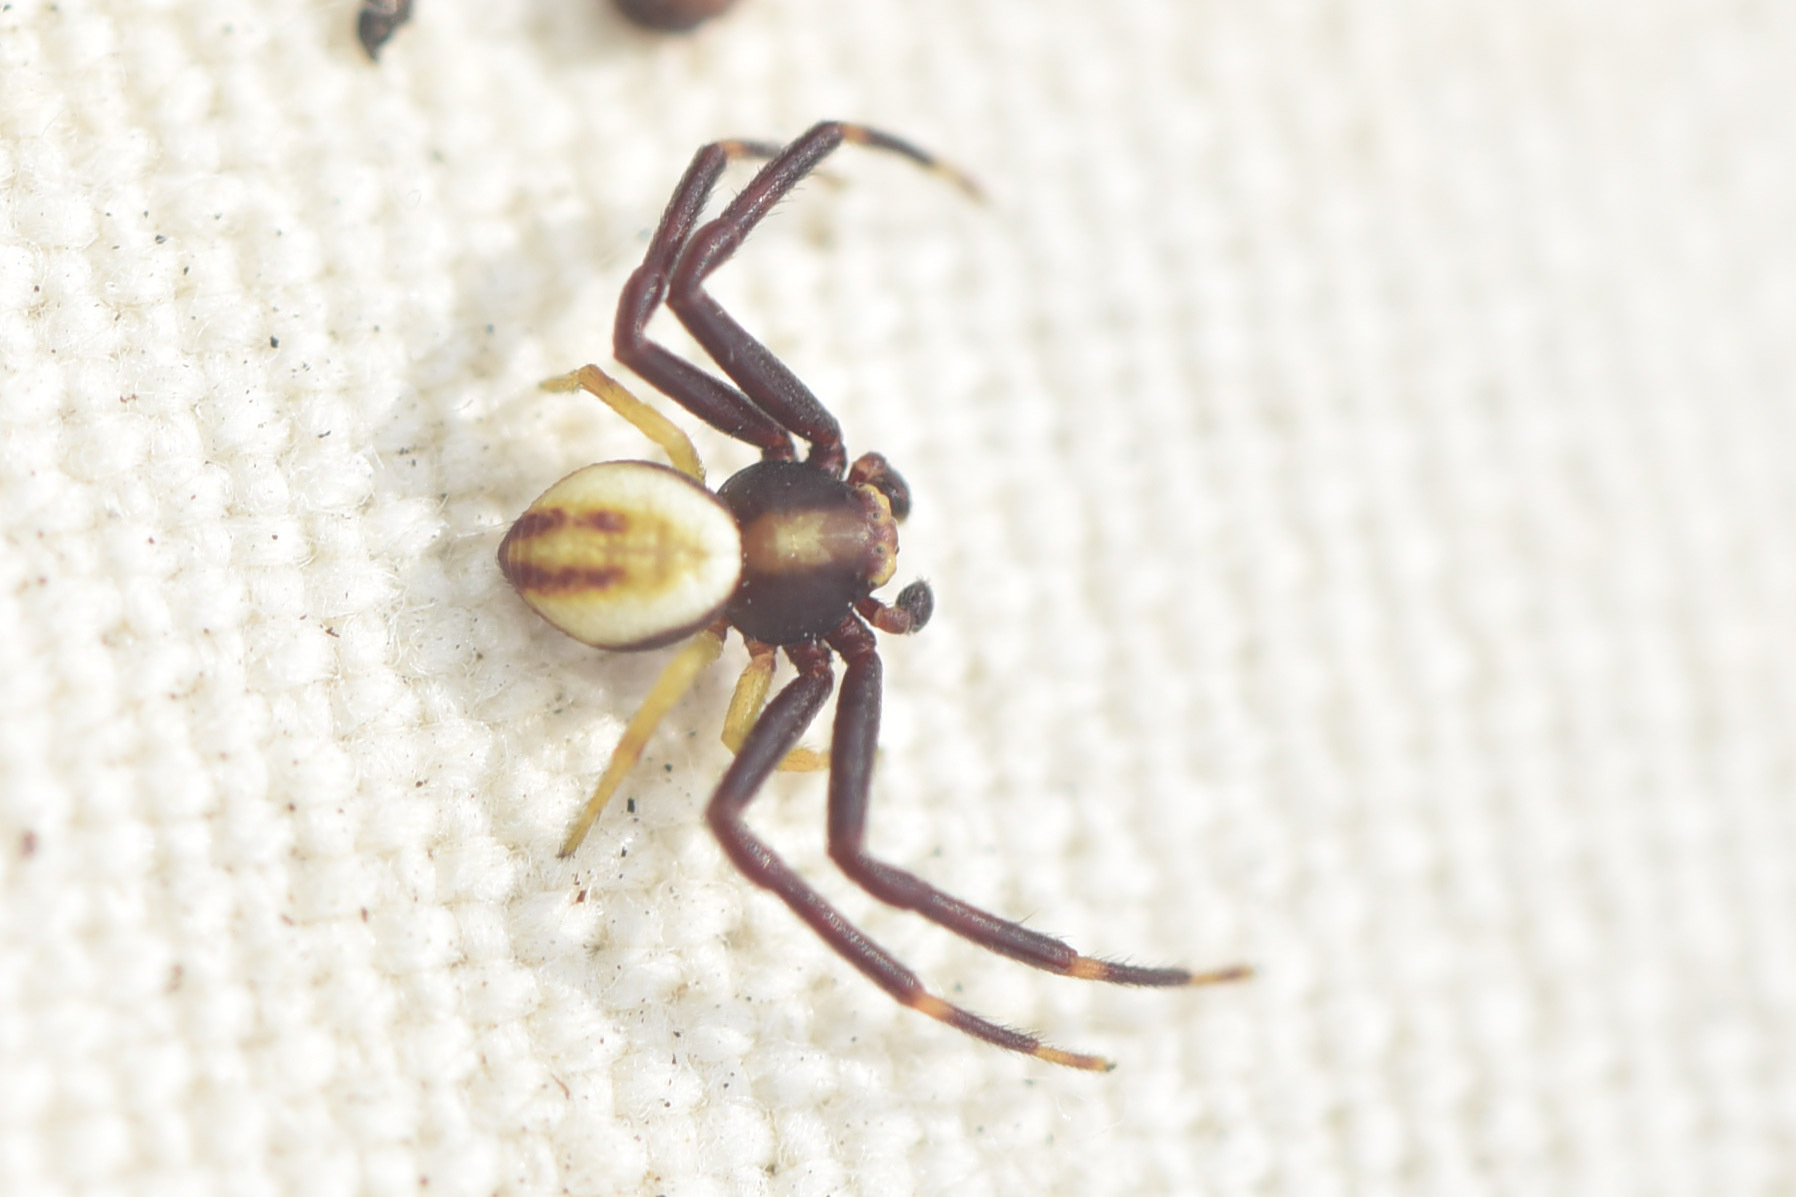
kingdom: Animalia
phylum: Arthropoda
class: Arachnida
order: Araneae
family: Thomisidae
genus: Misumena
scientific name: Misumena vatia
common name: Goldenrod crab spider
